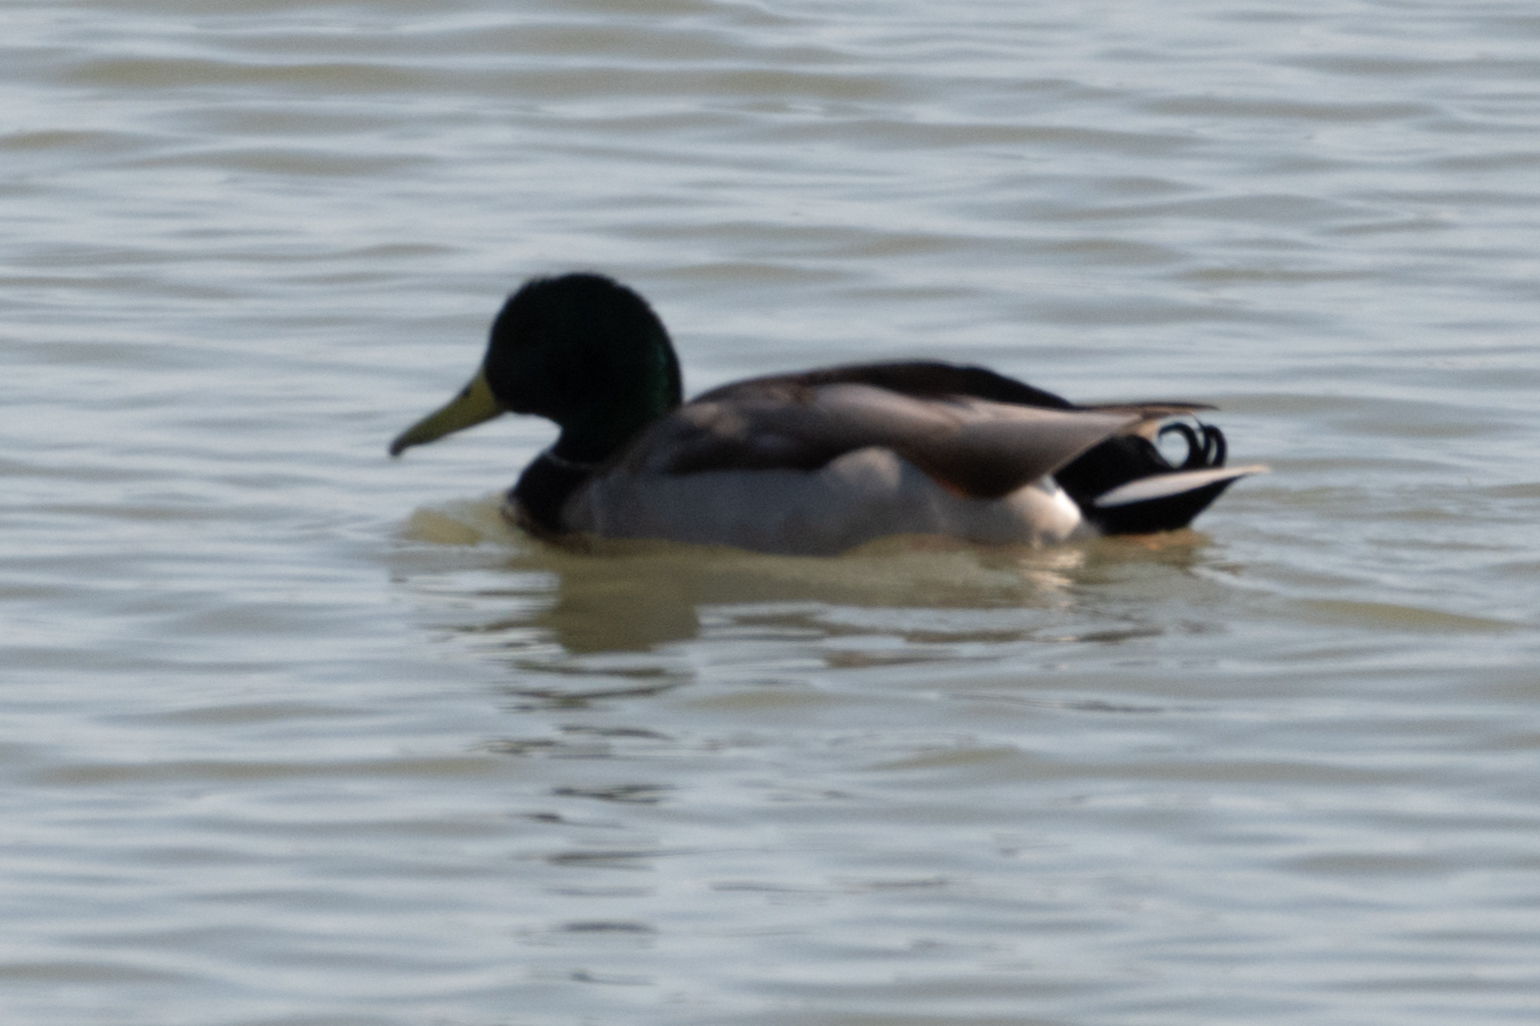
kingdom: Animalia
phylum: Chordata
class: Aves
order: Anseriformes
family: Anatidae
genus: Anas
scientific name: Anas platyrhynchos
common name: Mallard
